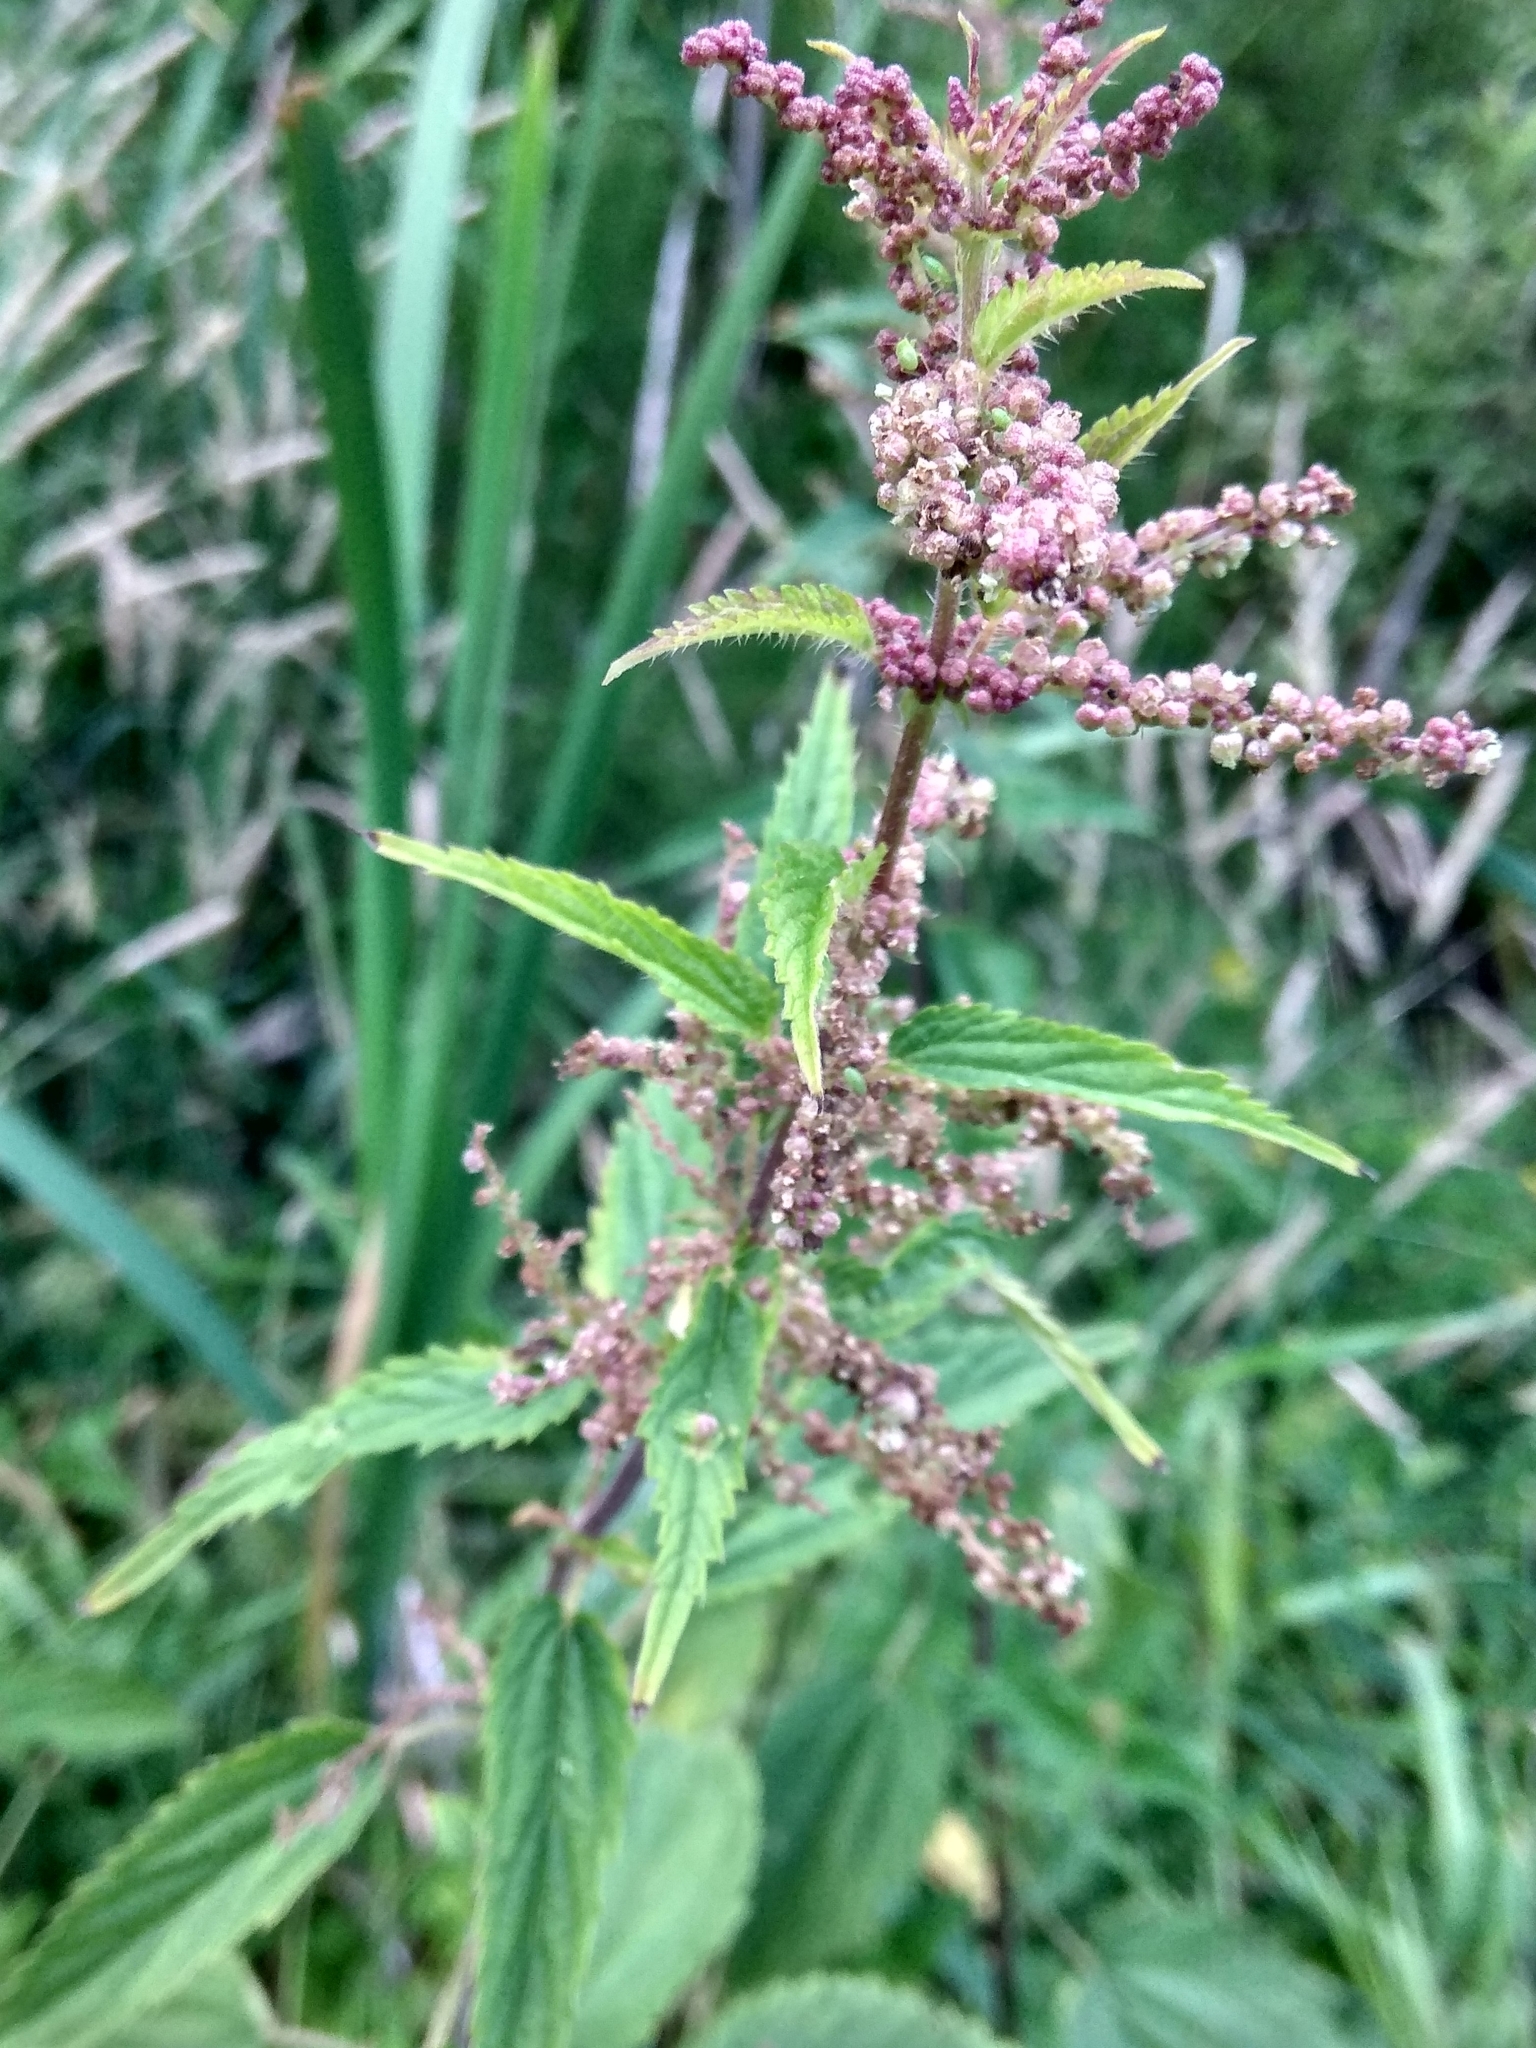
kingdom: Plantae
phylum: Tracheophyta
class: Magnoliopsida
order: Rosales
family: Urticaceae
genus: Urtica
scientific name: Urtica dioica
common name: Common nettle
